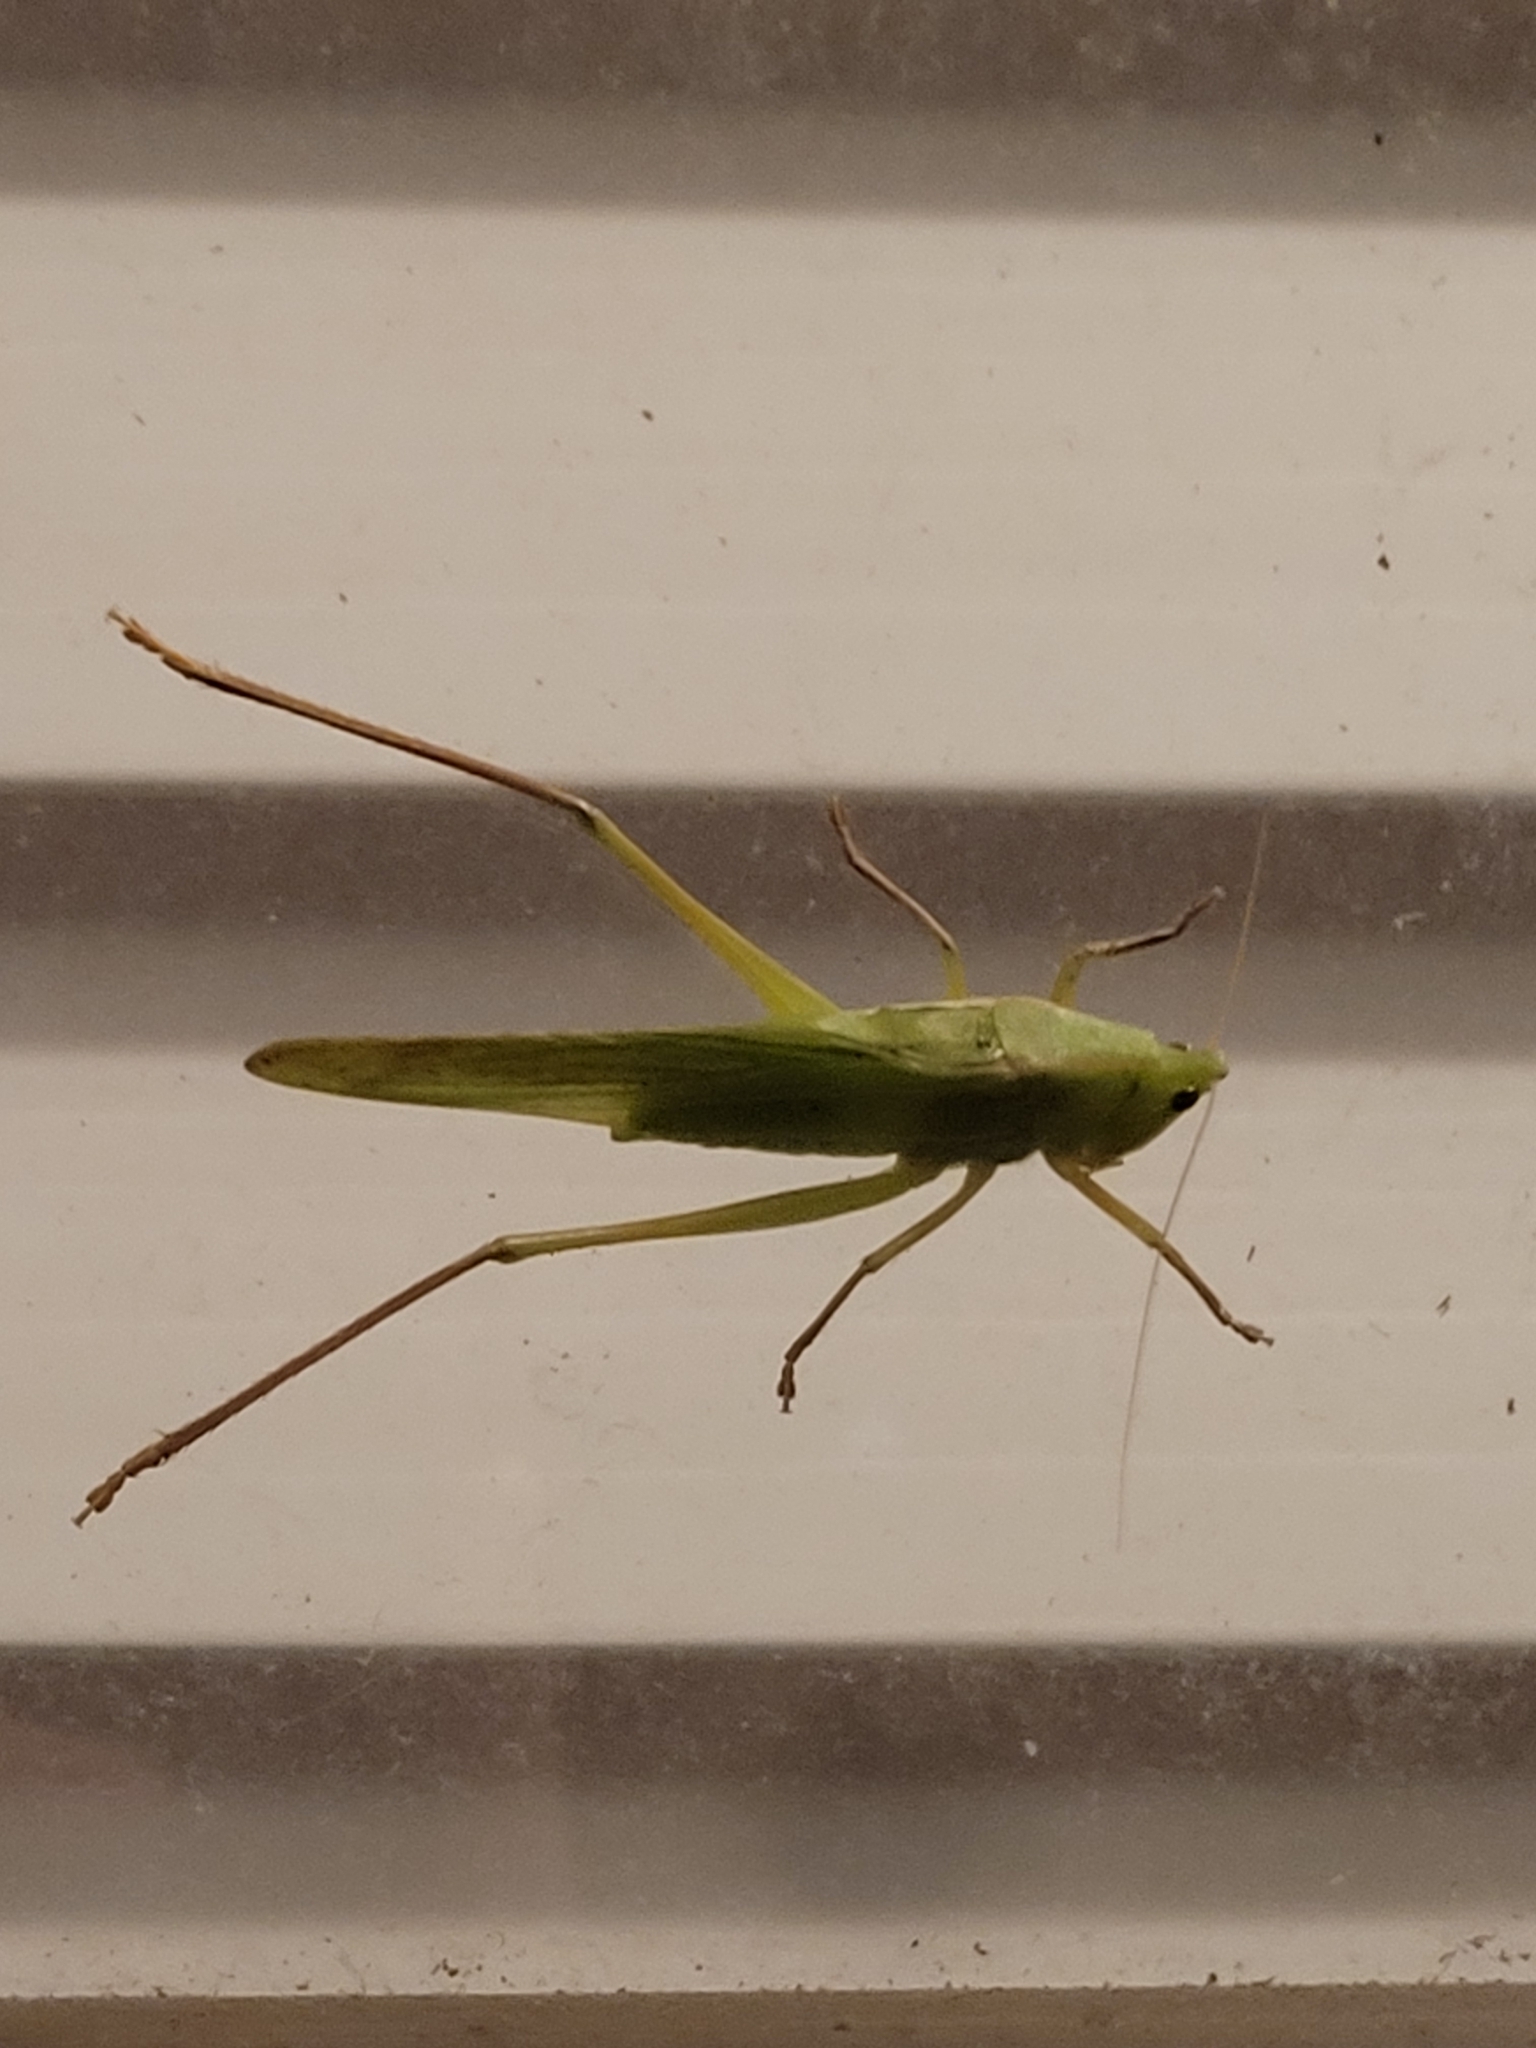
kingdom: Animalia
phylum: Arthropoda
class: Insecta
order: Orthoptera
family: Tettigoniidae
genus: Neoconocephalus
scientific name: Neoconocephalus triops
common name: Broad-tipped conehead
